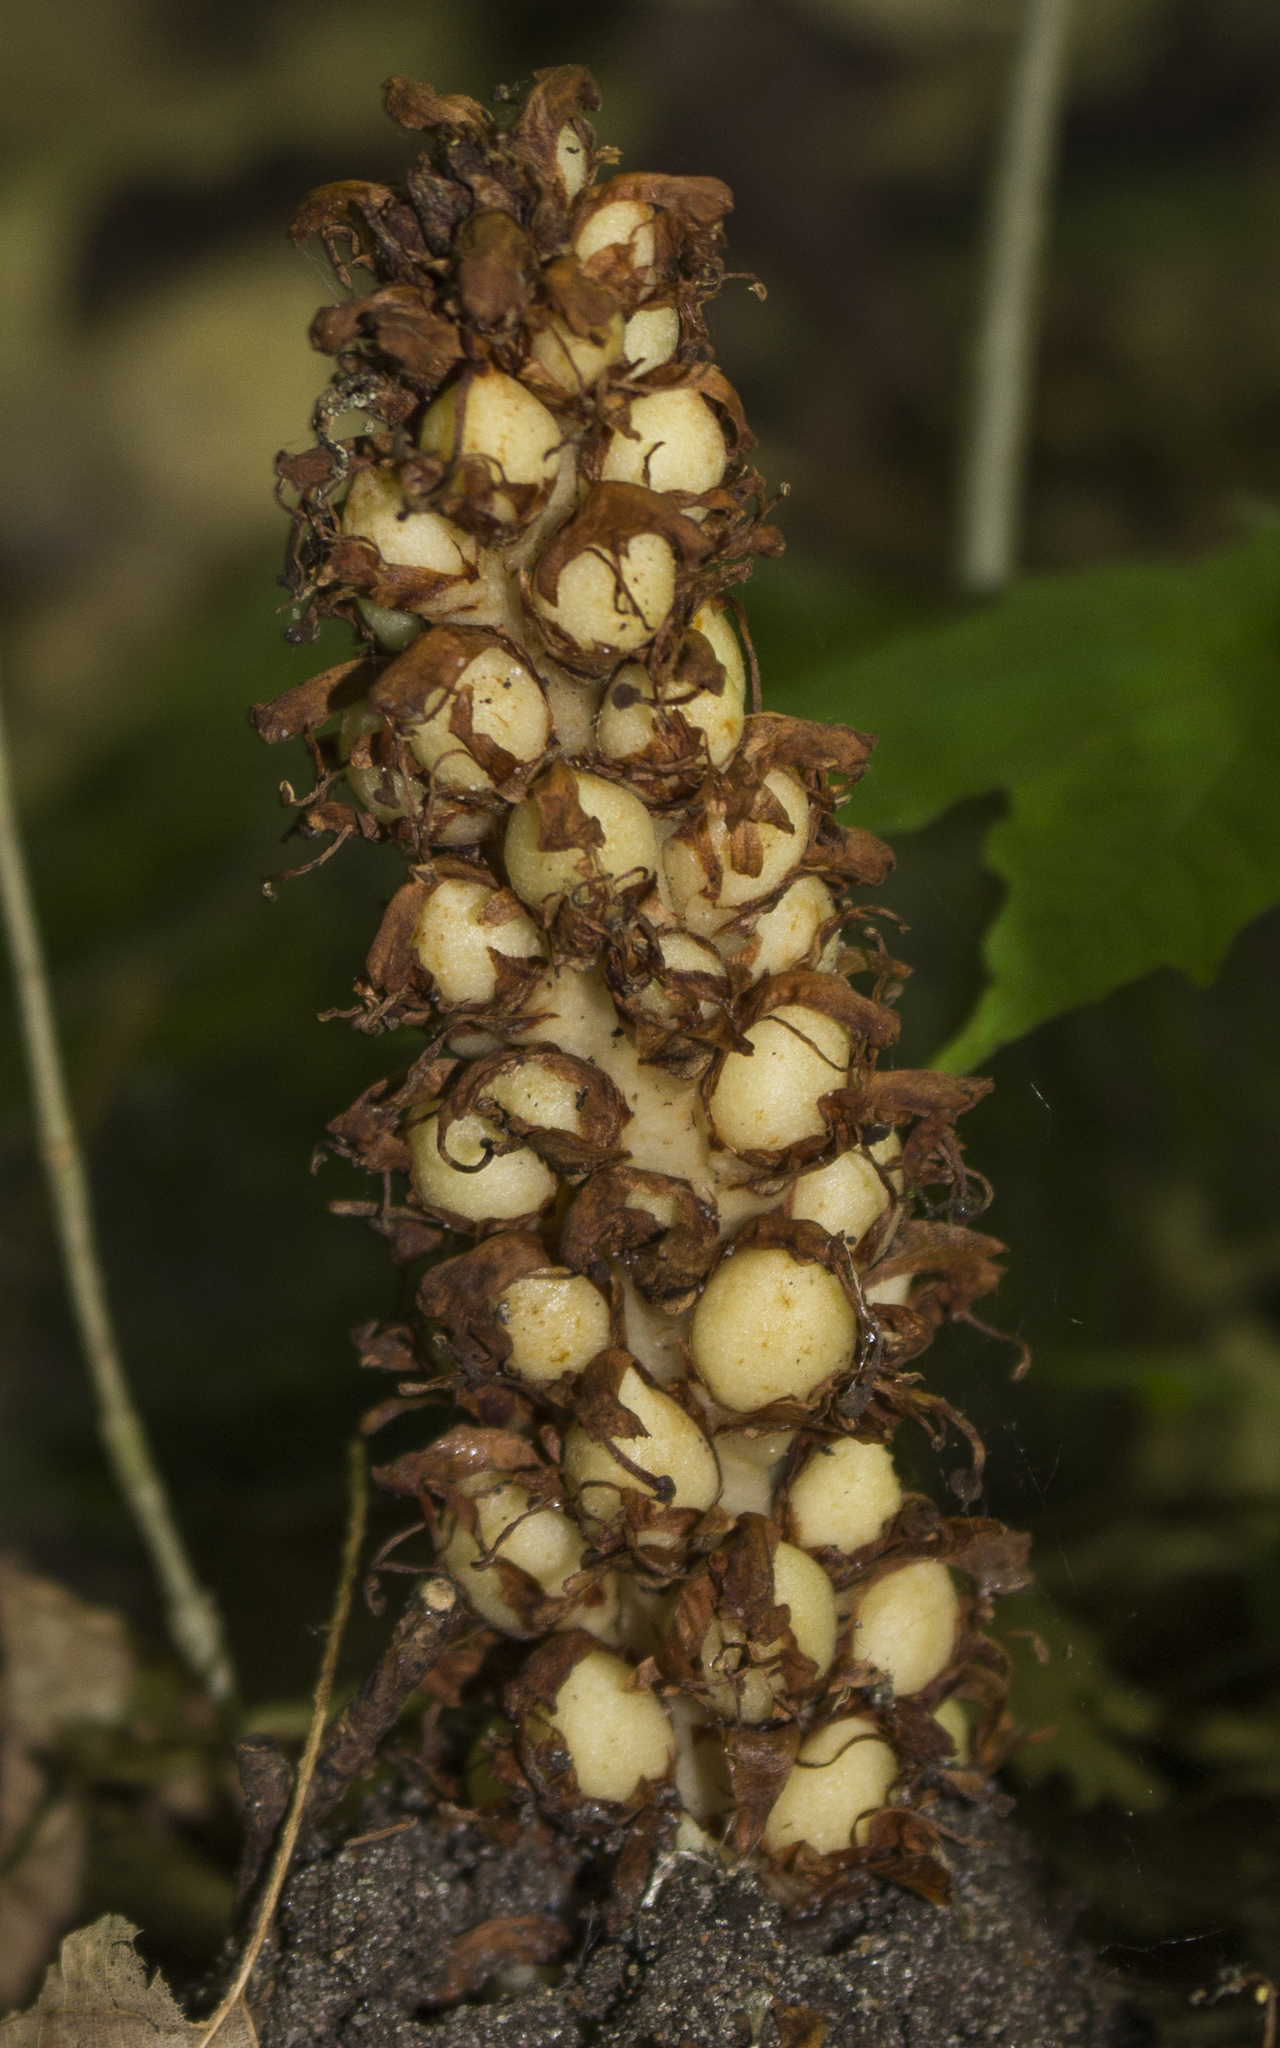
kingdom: Plantae
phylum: Tracheophyta
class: Magnoliopsida
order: Lamiales
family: Orobanchaceae
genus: Conopholis
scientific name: Conopholis americana
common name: American cancer-root
